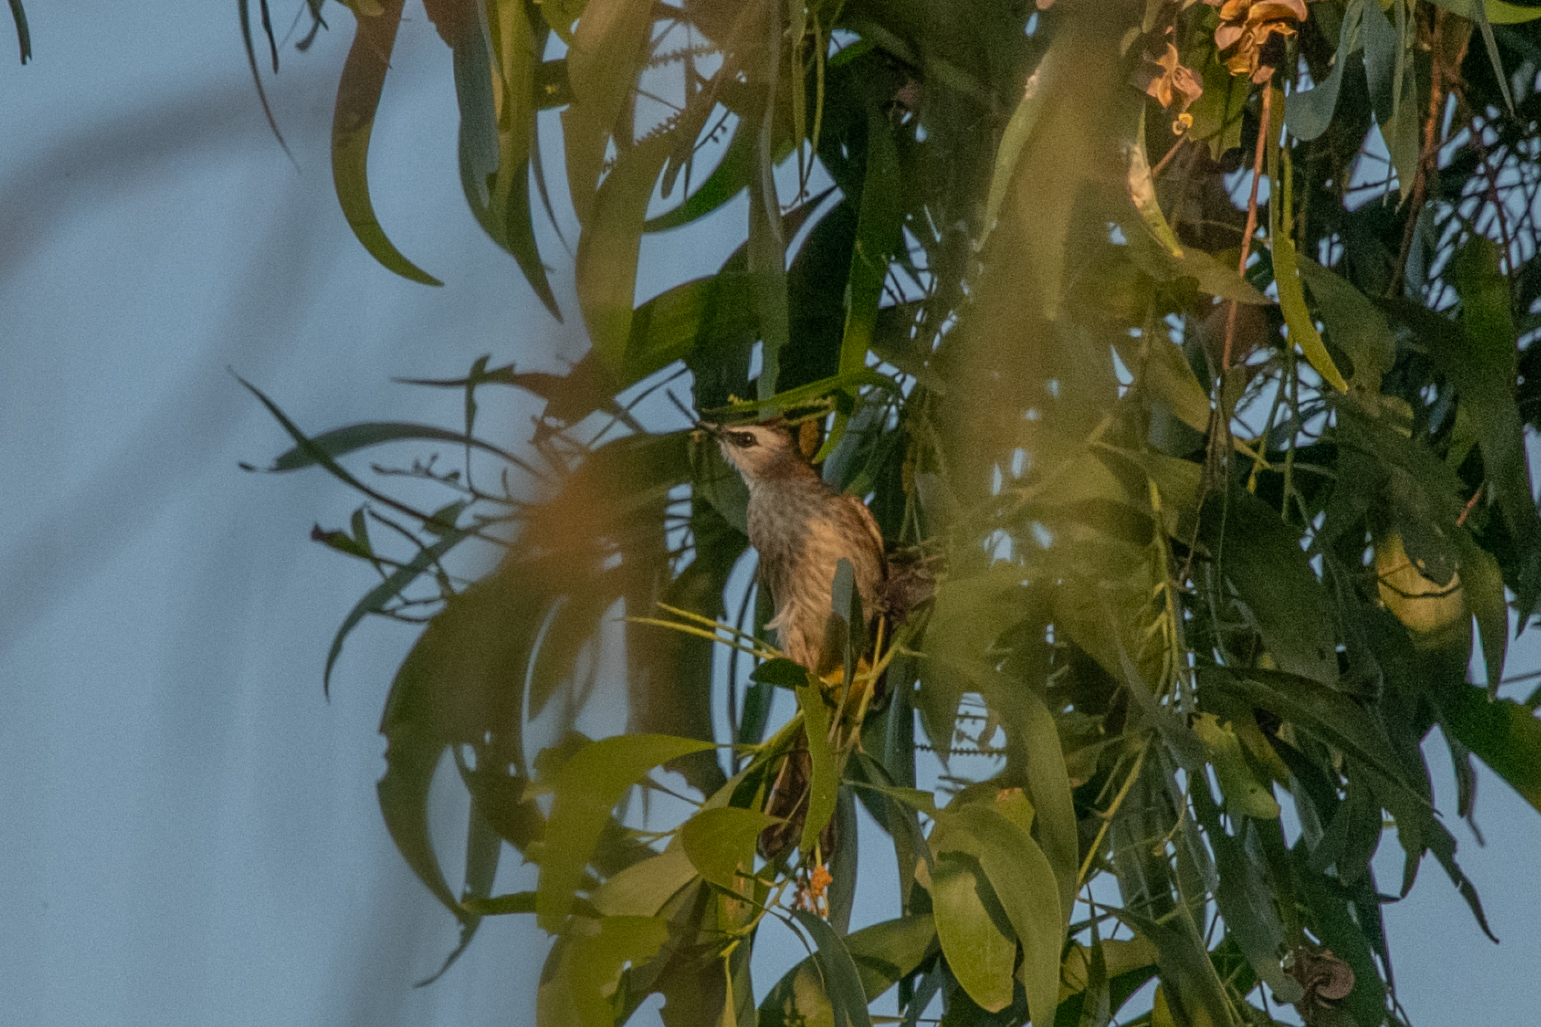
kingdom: Animalia
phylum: Chordata
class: Aves
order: Passeriformes
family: Pycnonotidae
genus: Pycnonotus
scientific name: Pycnonotus goiavier
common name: Yellow-vented bulbul
